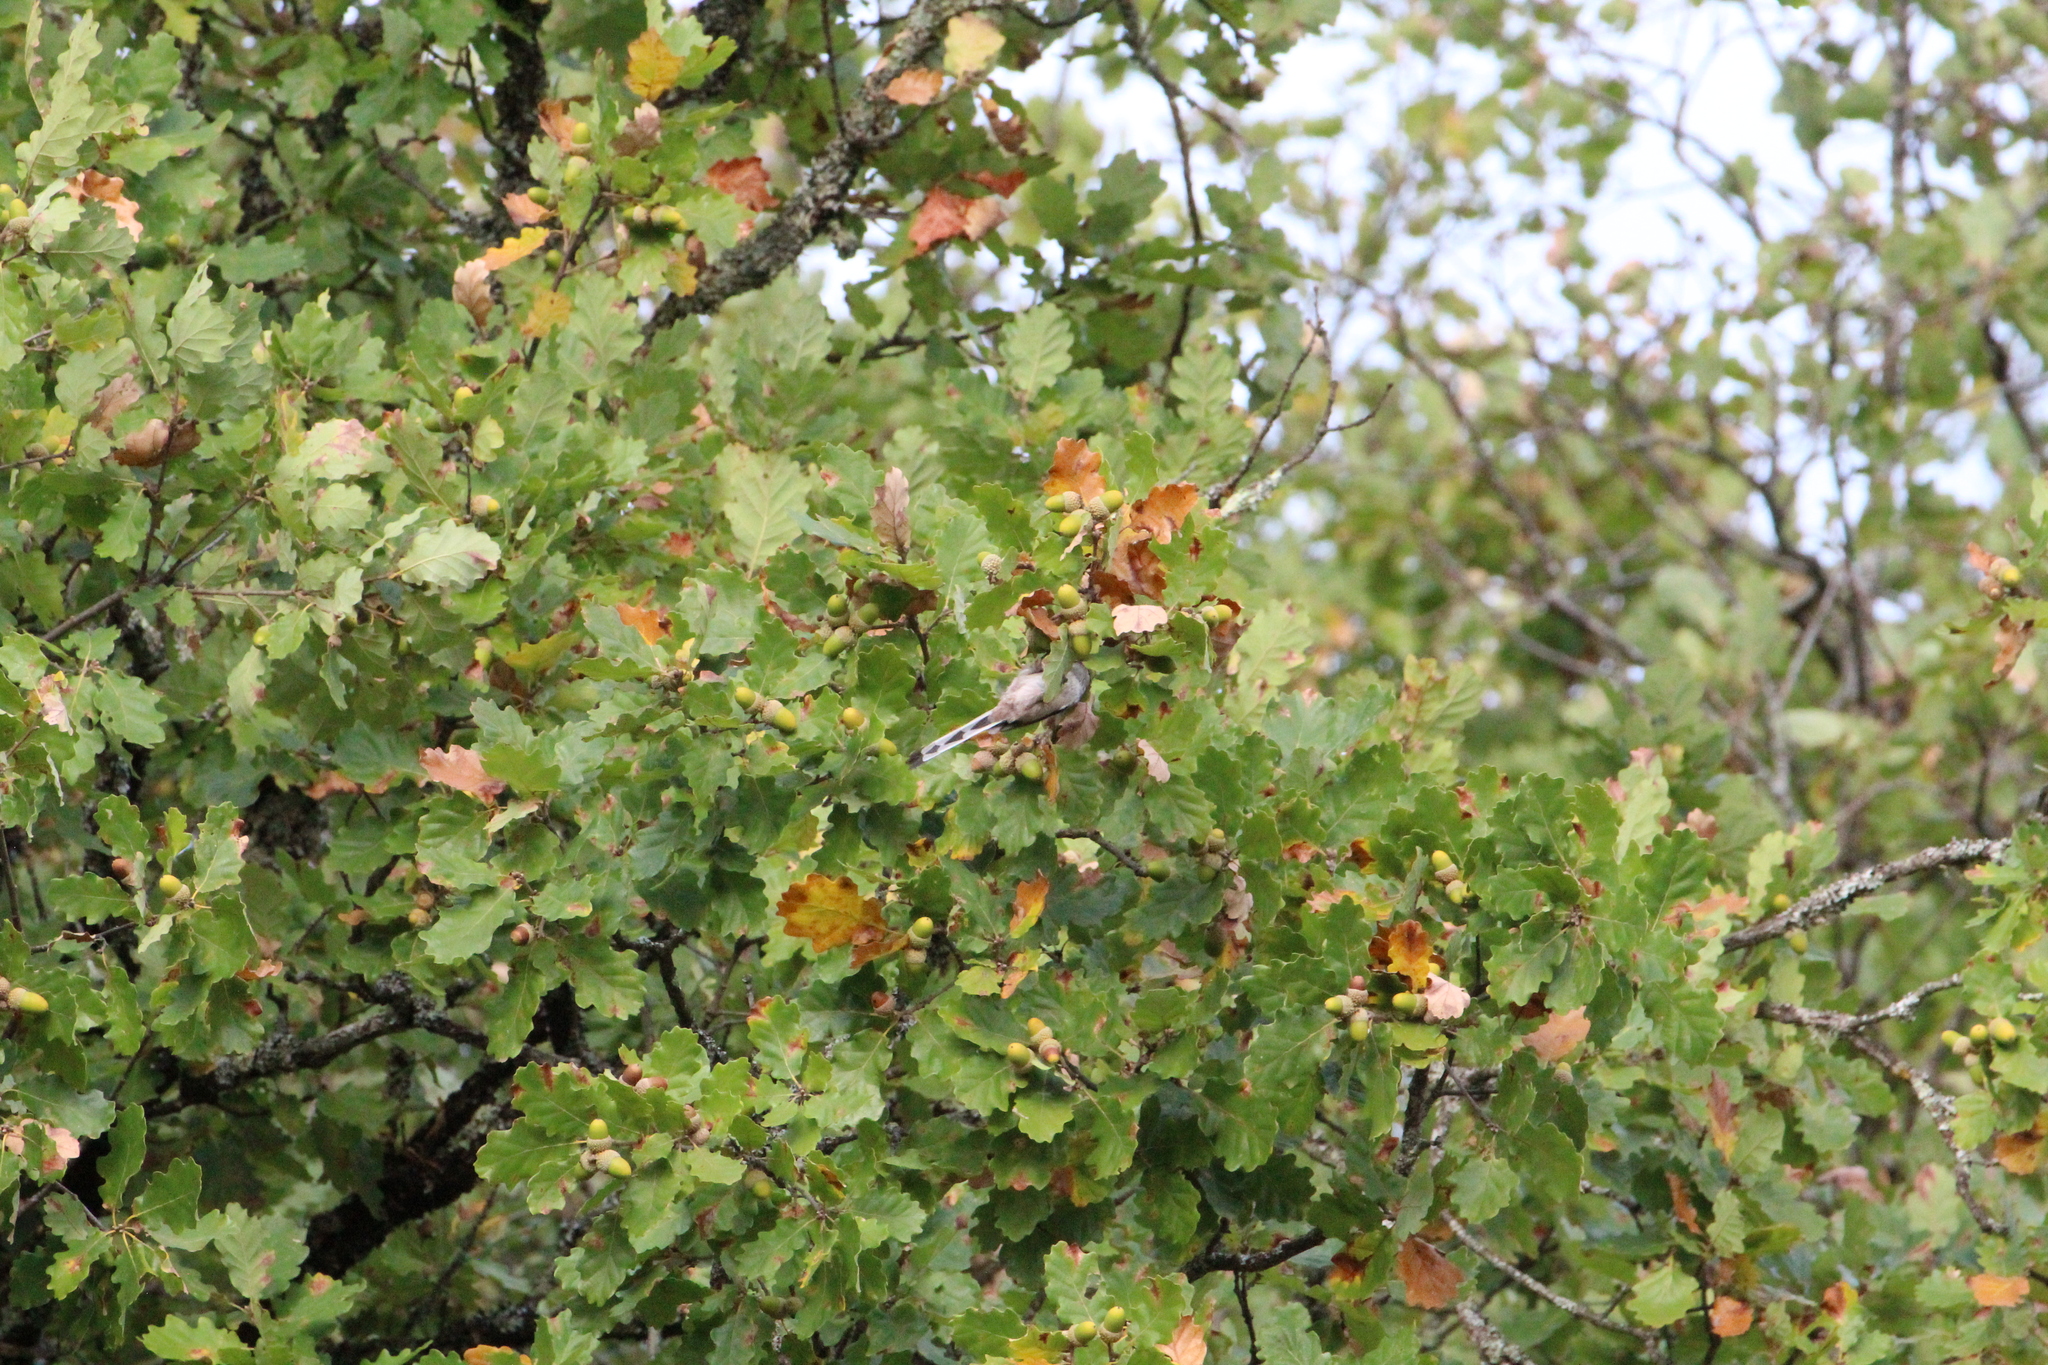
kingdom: Animalia
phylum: Chordata
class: Aves
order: Passeriformes
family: Aegithalidae
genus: Aegithalos
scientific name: Aegithalos caudatus
